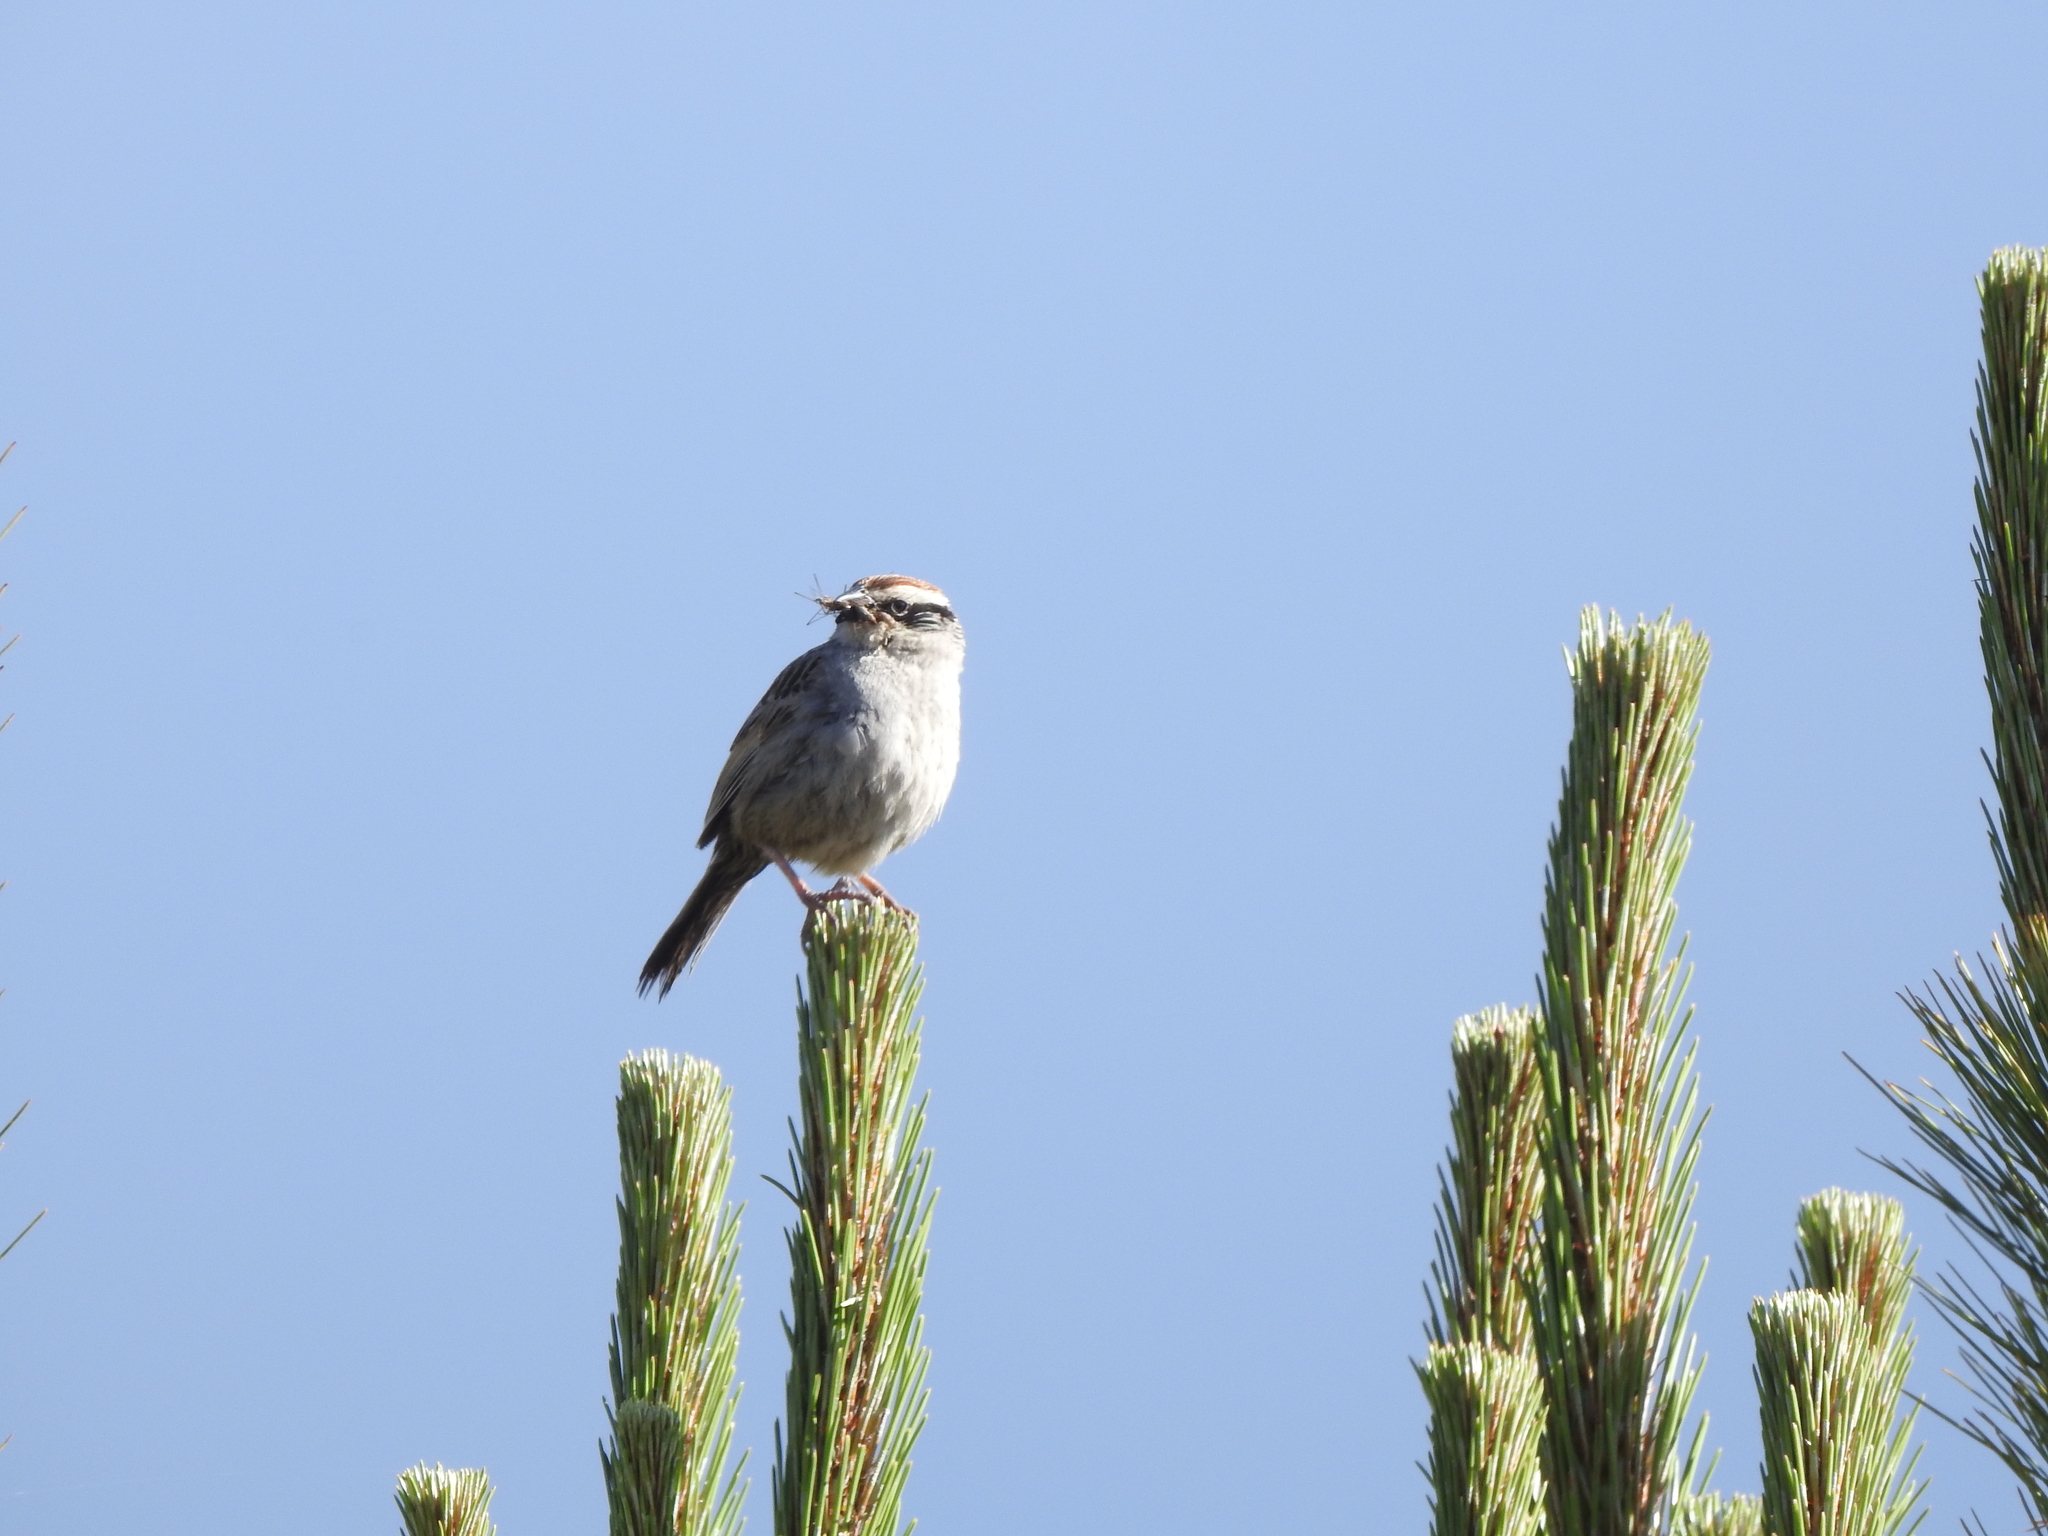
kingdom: Animalia
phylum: Chordata
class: Aves
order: Passeriformes
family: Passerellidae
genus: Oriturus
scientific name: Oriturus superciliosus
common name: Striped sparrow
